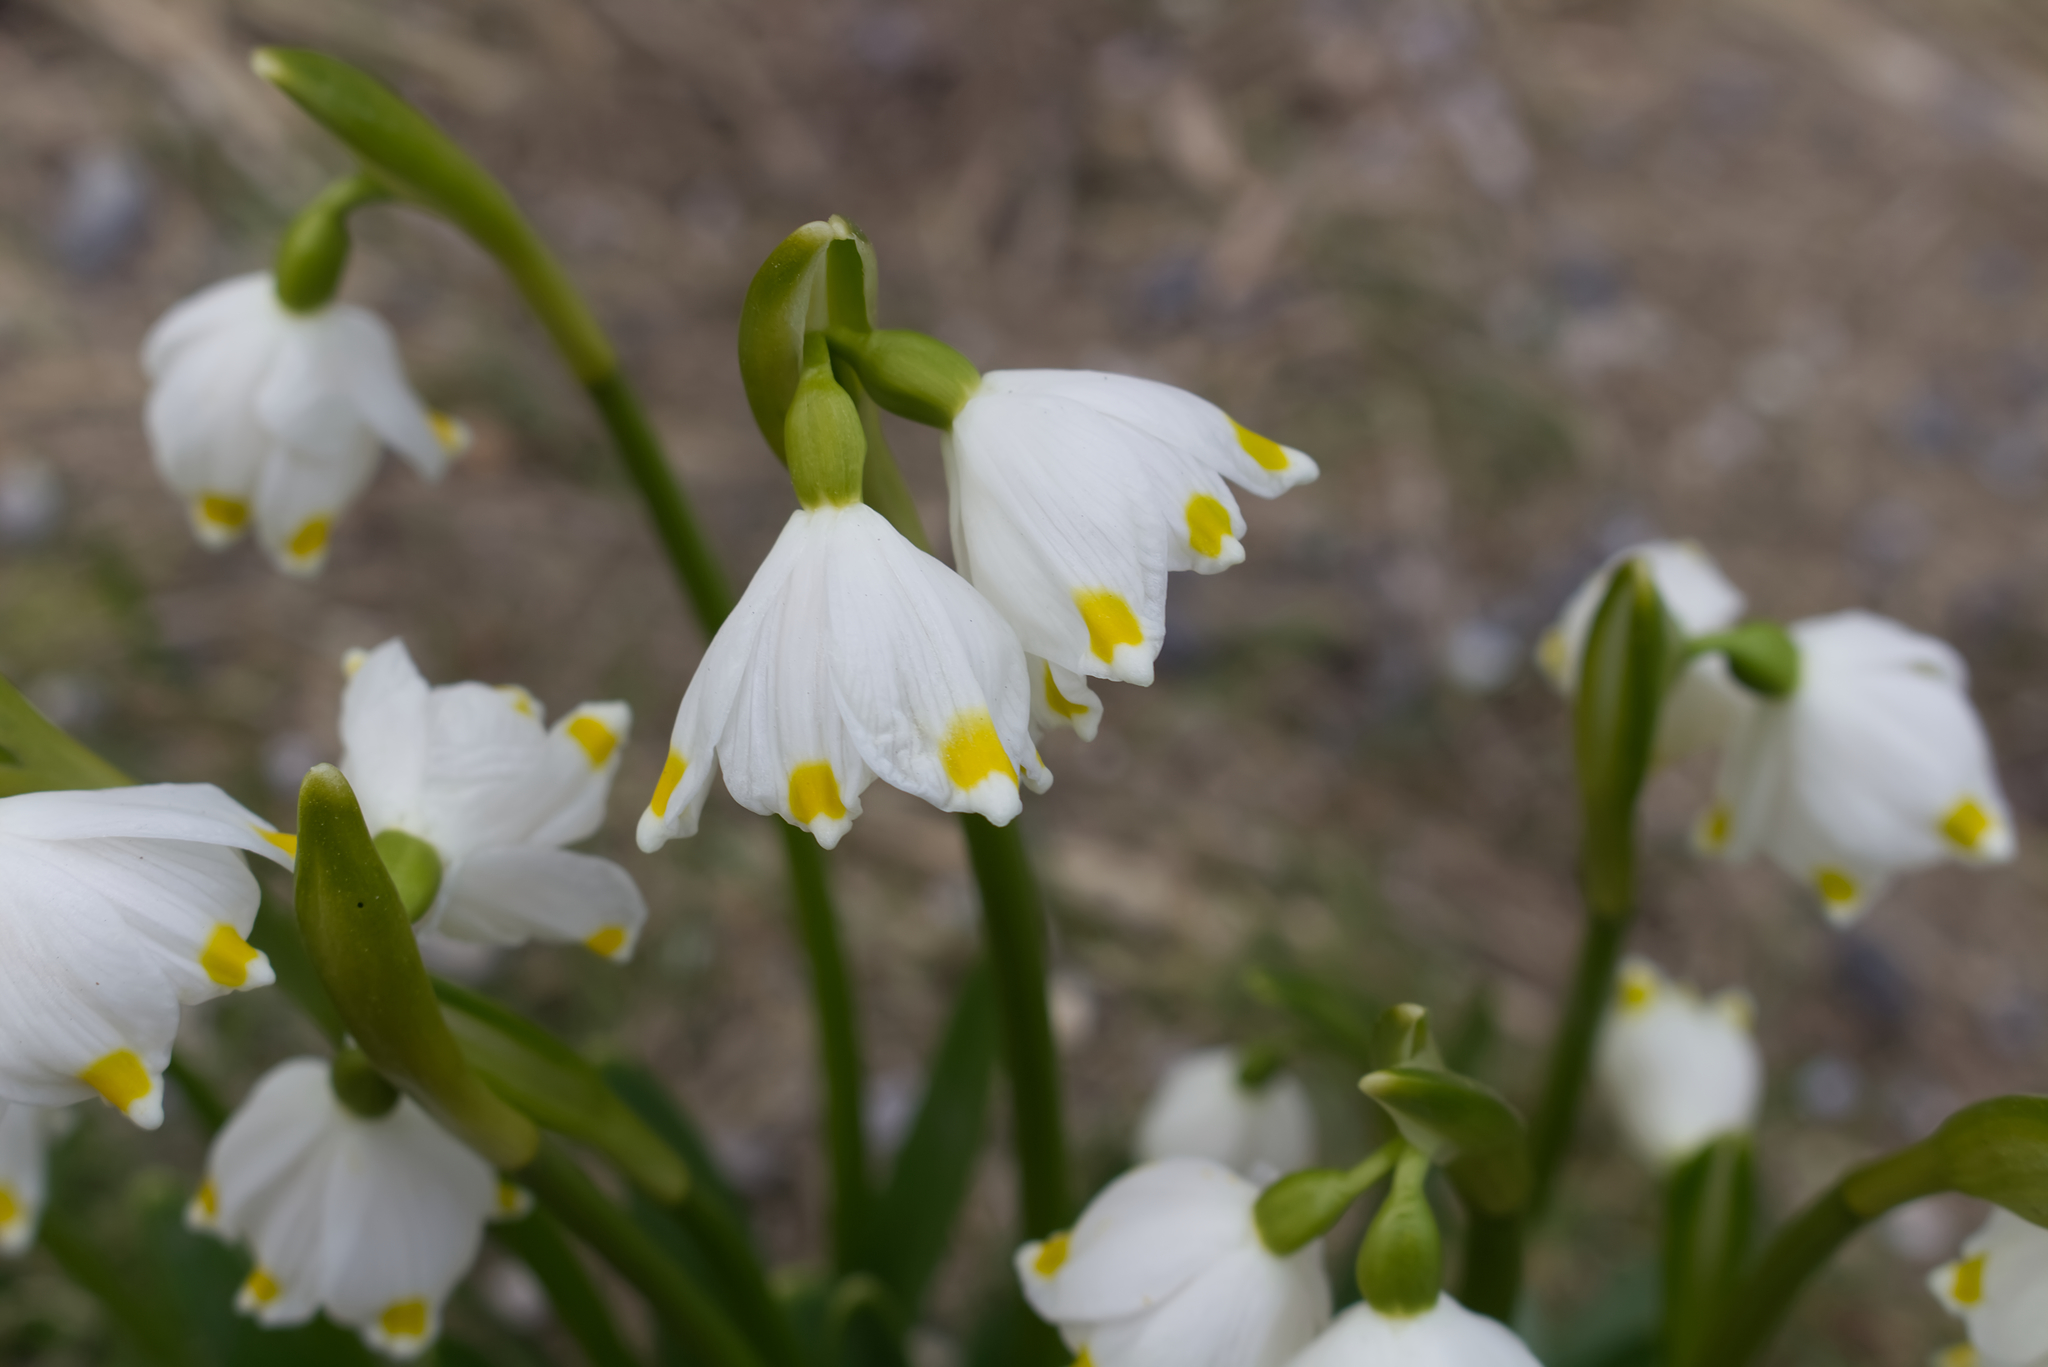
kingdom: Plantae
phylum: Tracheophyta
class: Liliopsida
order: Asparagales
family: Amaryllidaceae
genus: Leucojum
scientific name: Leucojum vernum
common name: Spring snowflake
